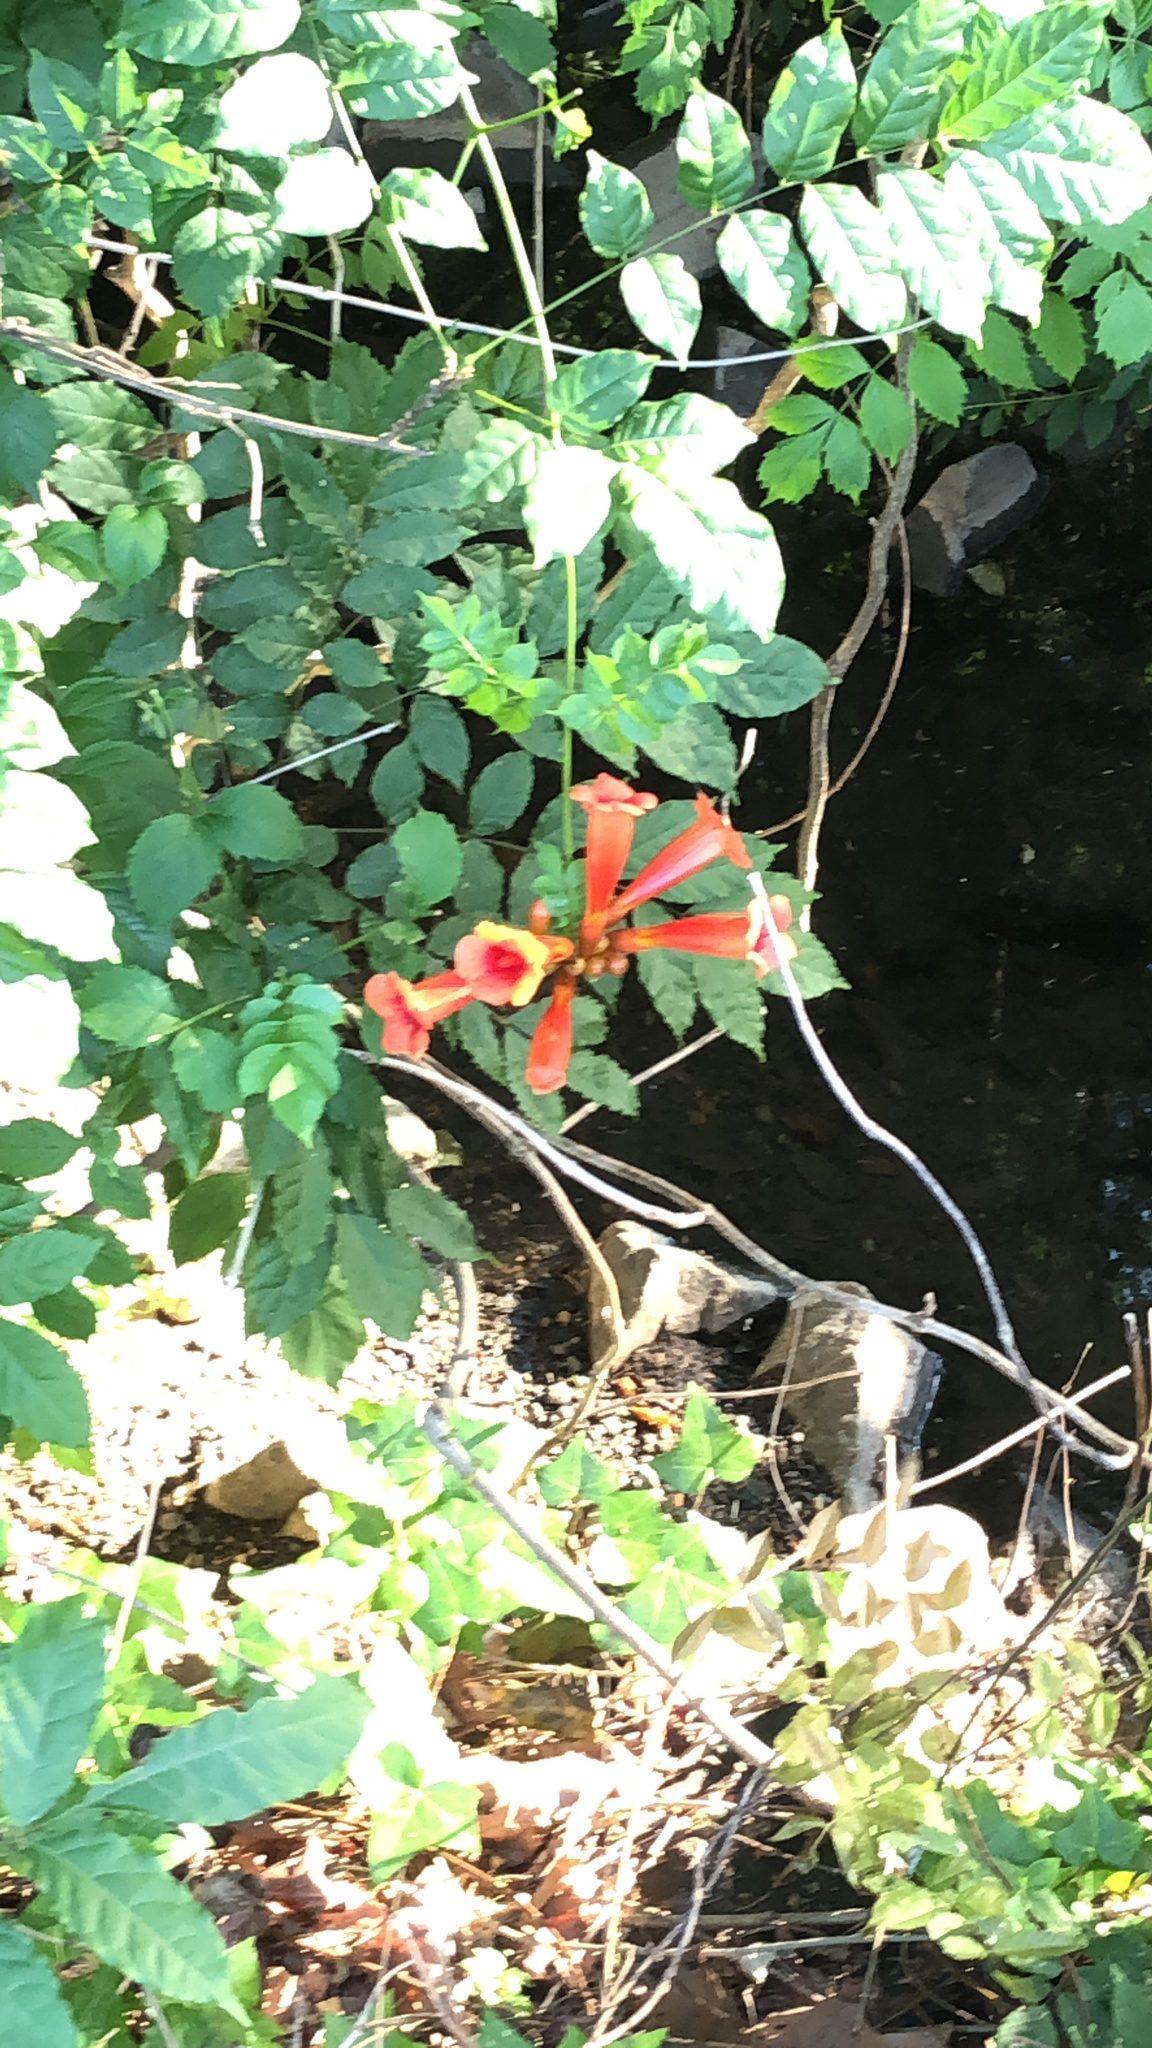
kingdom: Plantae
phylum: Tracheophyta
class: Magnoliopsida
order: Lamiales
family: Bignoniaceae
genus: Campsis
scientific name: Campsis radicans
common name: Trumpet-creeper
